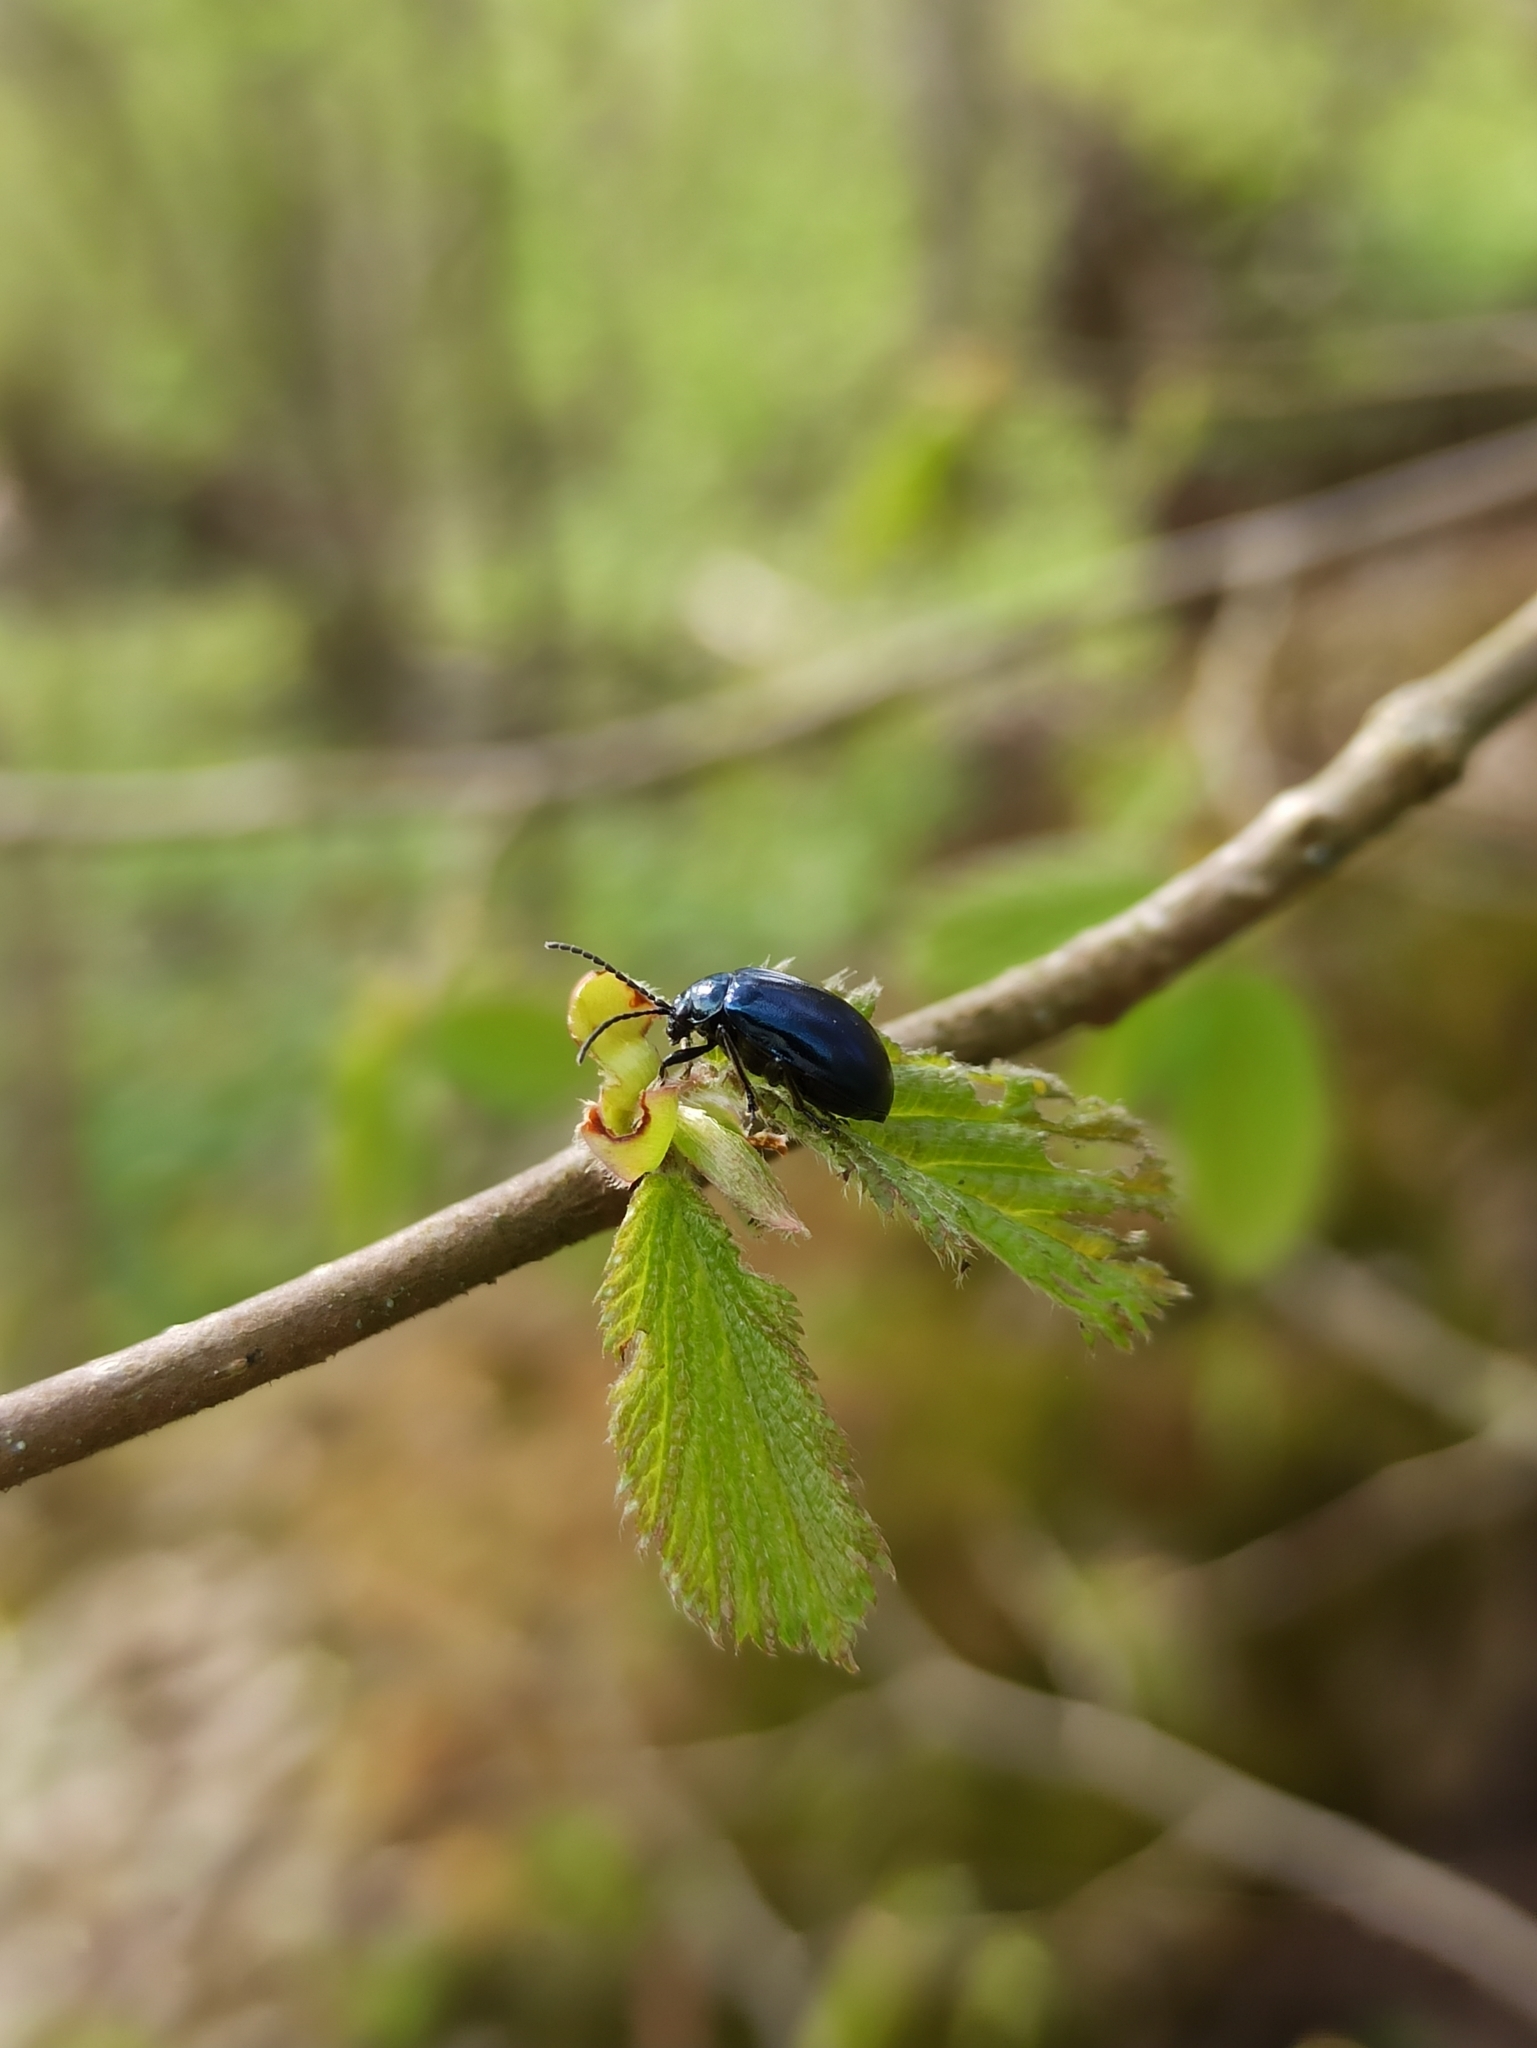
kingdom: Animalia
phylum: Arthropoda
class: Insecta
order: Coleoptera
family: Chrysomelidae
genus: Agelastica
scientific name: Agelastica alni
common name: Alder leaf beetle
